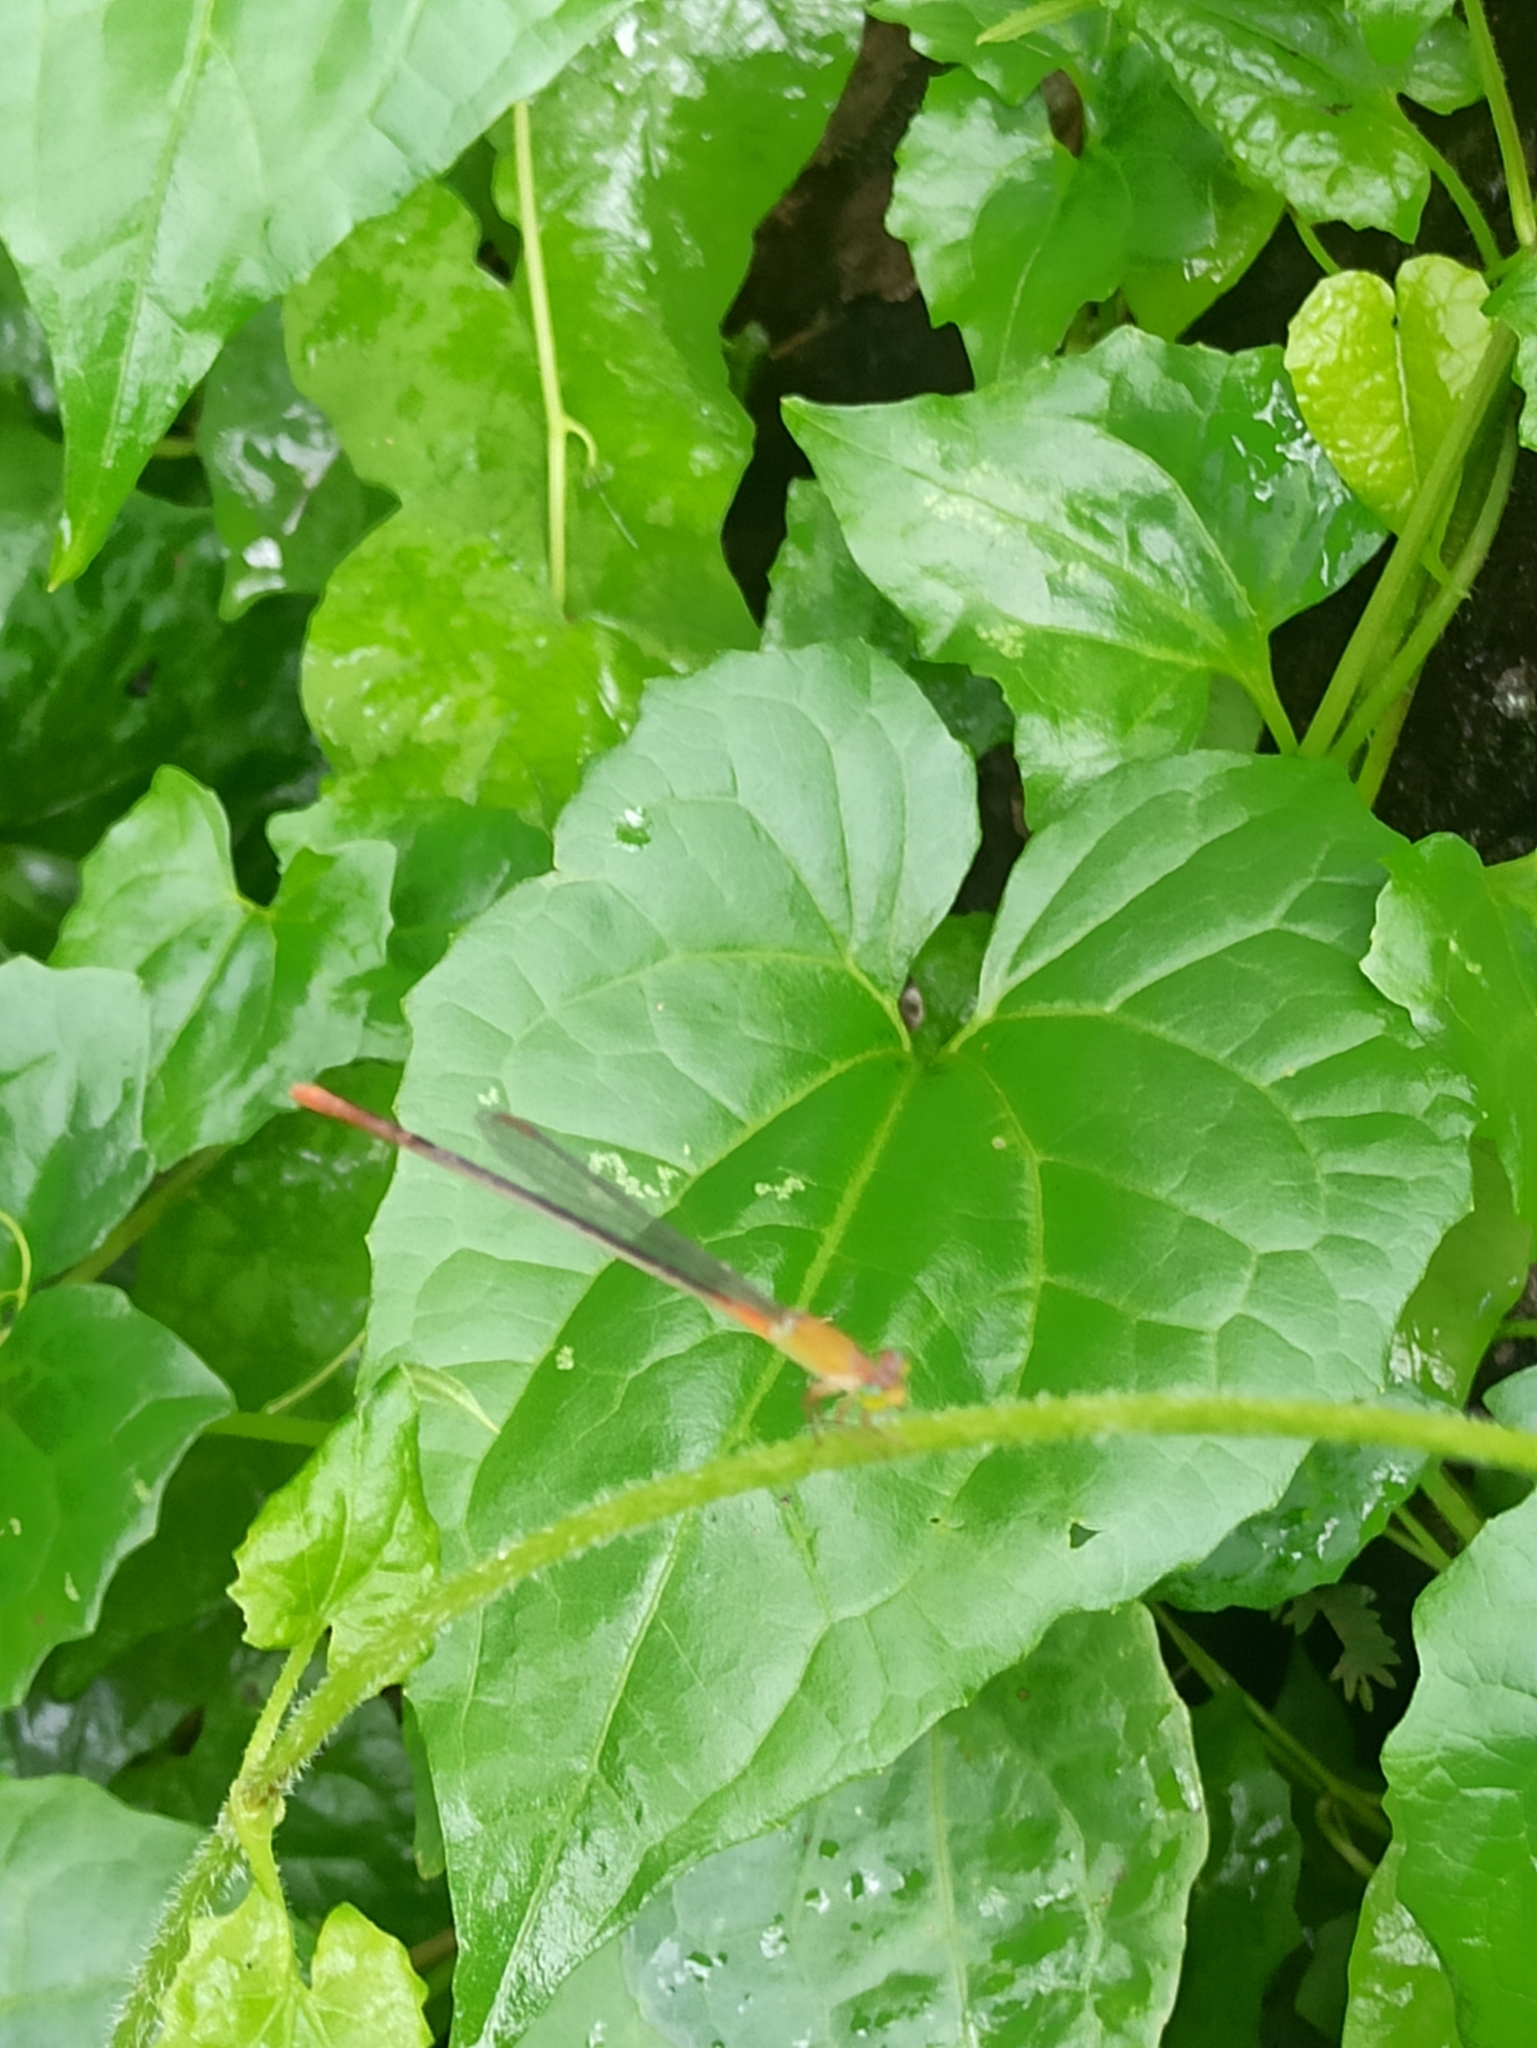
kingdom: Animalia
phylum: Arthropoda
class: Insecta
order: Odonata
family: Coenagrionidae
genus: Ceriagrion
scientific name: Ceriagrion cerinorubellum
